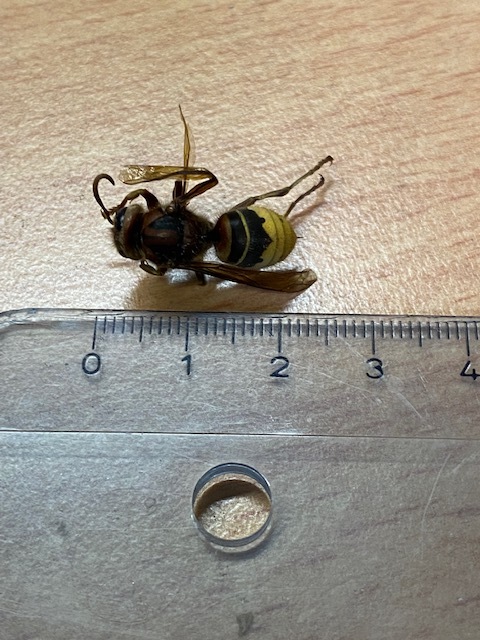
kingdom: Animalia
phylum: Arthropoda
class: Insecta
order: Hymenoptera
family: Vespidae
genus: Vespa
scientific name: Vespa crabro
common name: Hornet
